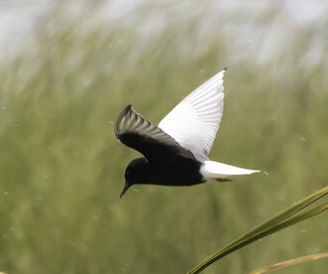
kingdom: Animalia
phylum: Chordata
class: Aves
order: Charadriiformes
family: Laridae
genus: Chlidonias
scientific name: Chlidonias leucopterus
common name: White-winged tern
